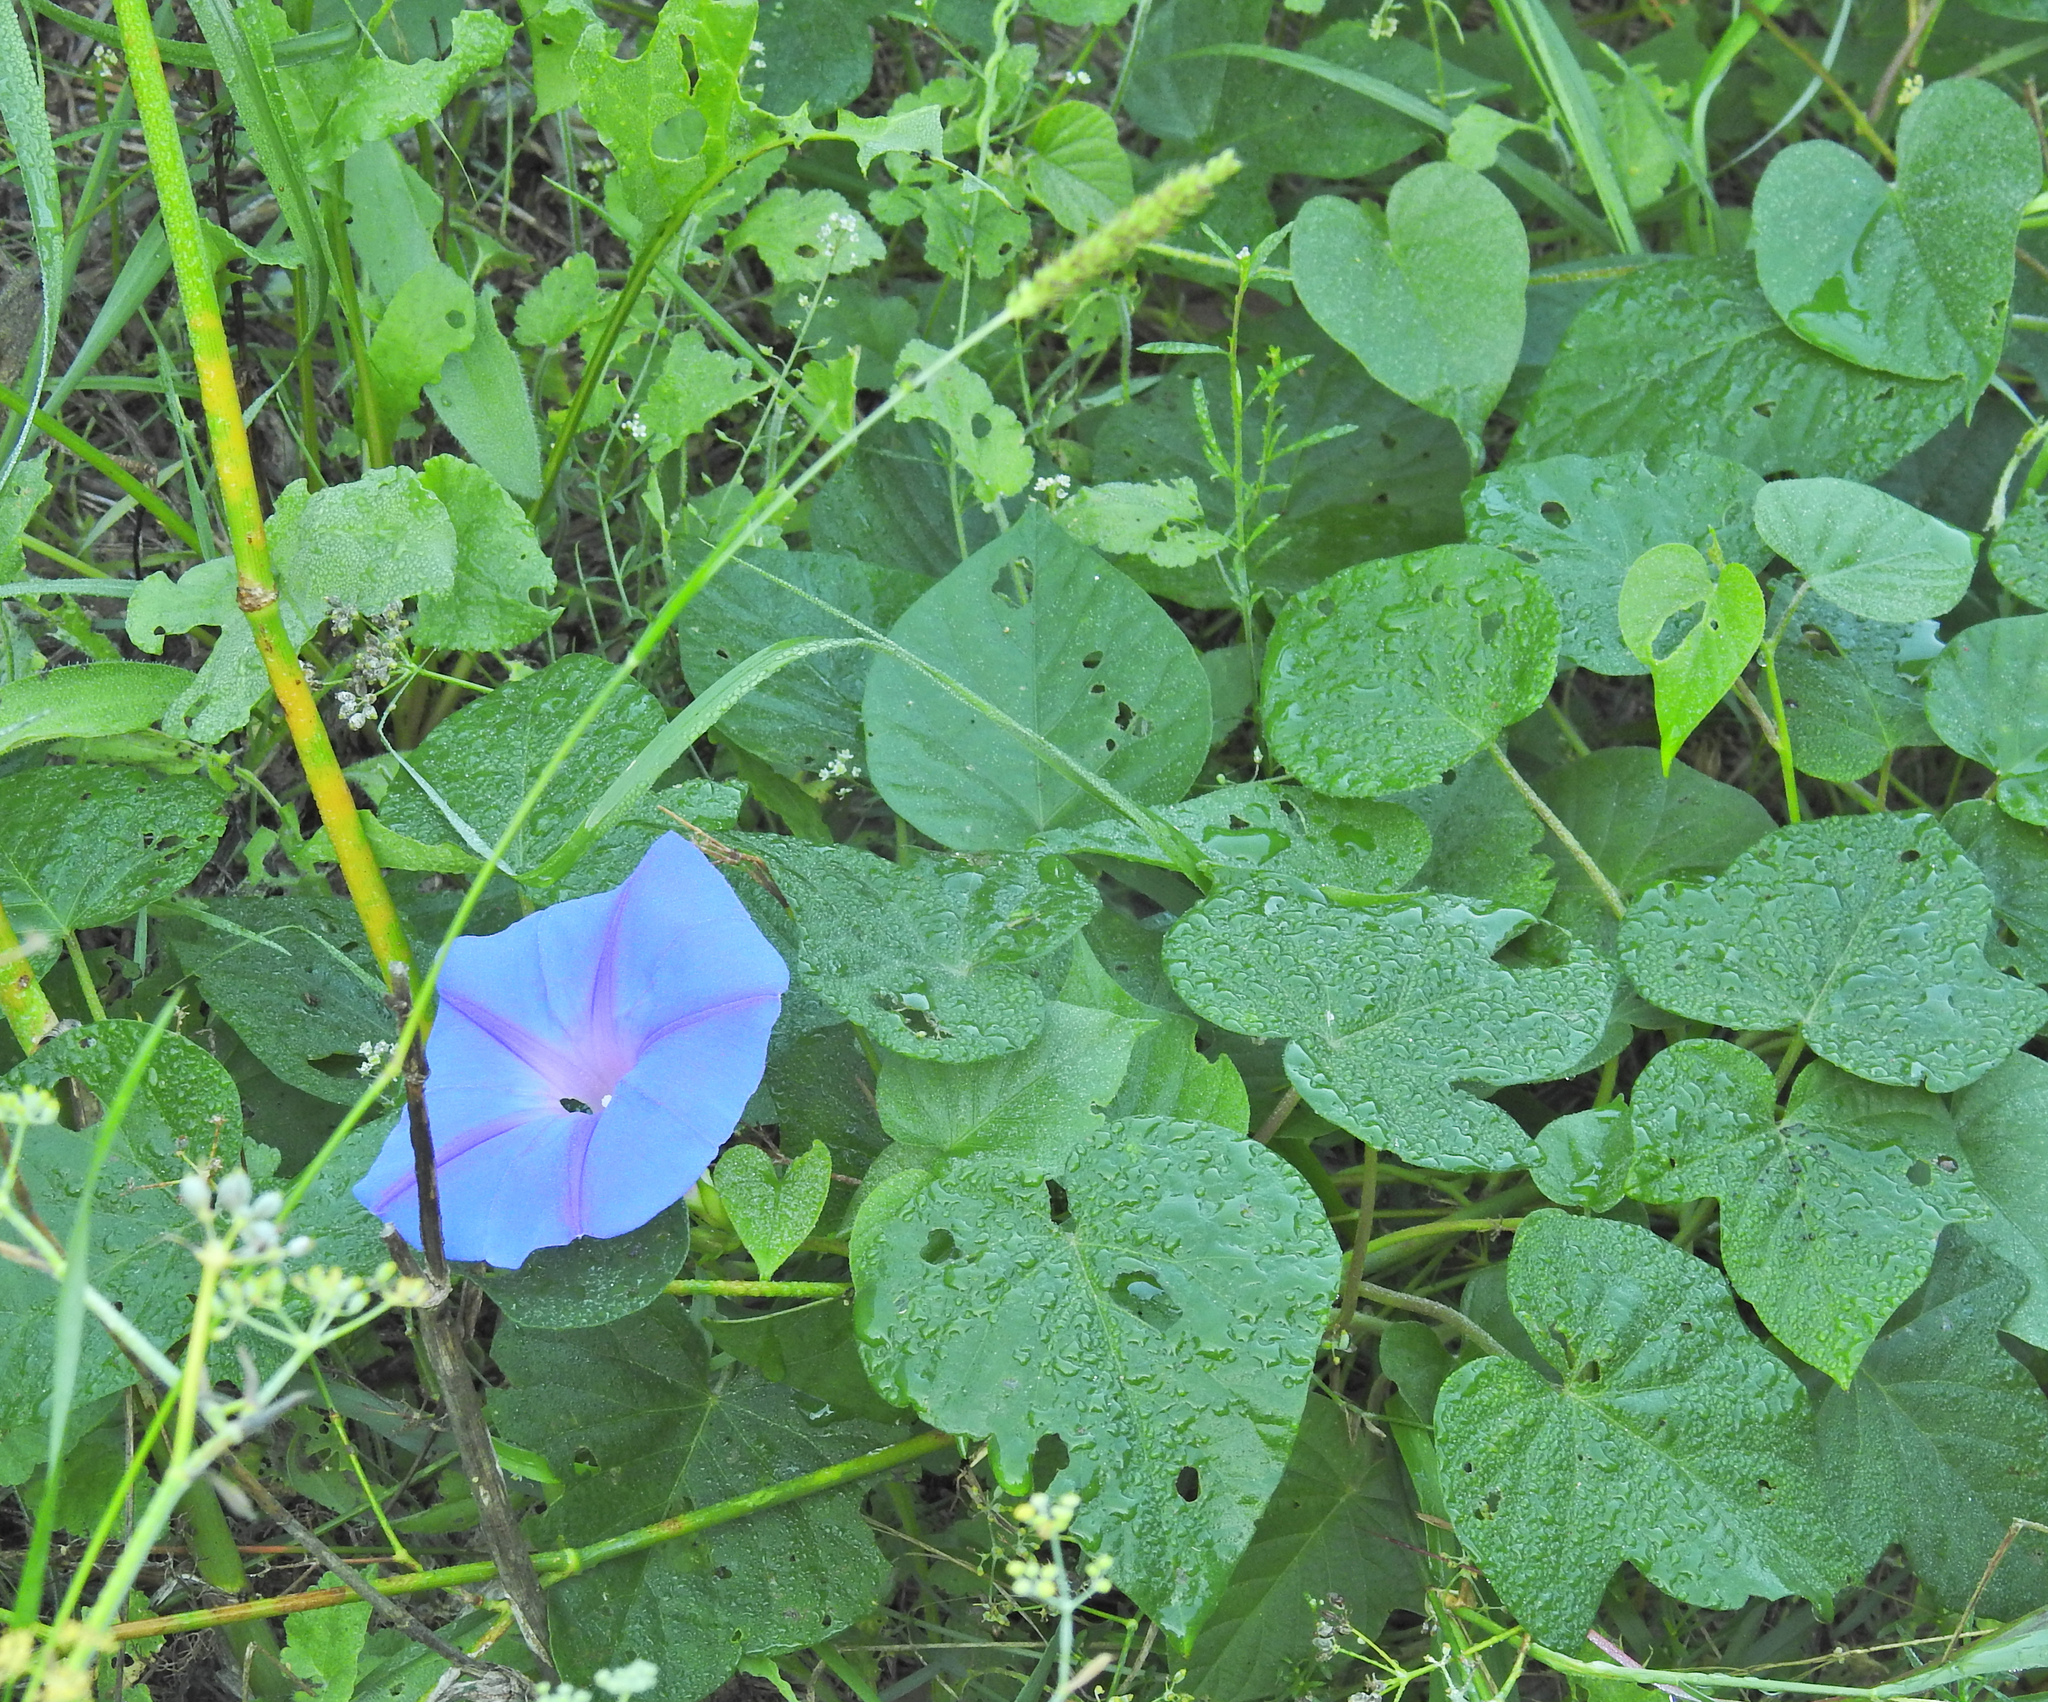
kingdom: Plantae
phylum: Tracheophyta
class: Magnoliopsida
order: Solanales
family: Convolvulaceae
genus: Ipomoea
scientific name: Ipomoea indica
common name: Blue dawnflower
